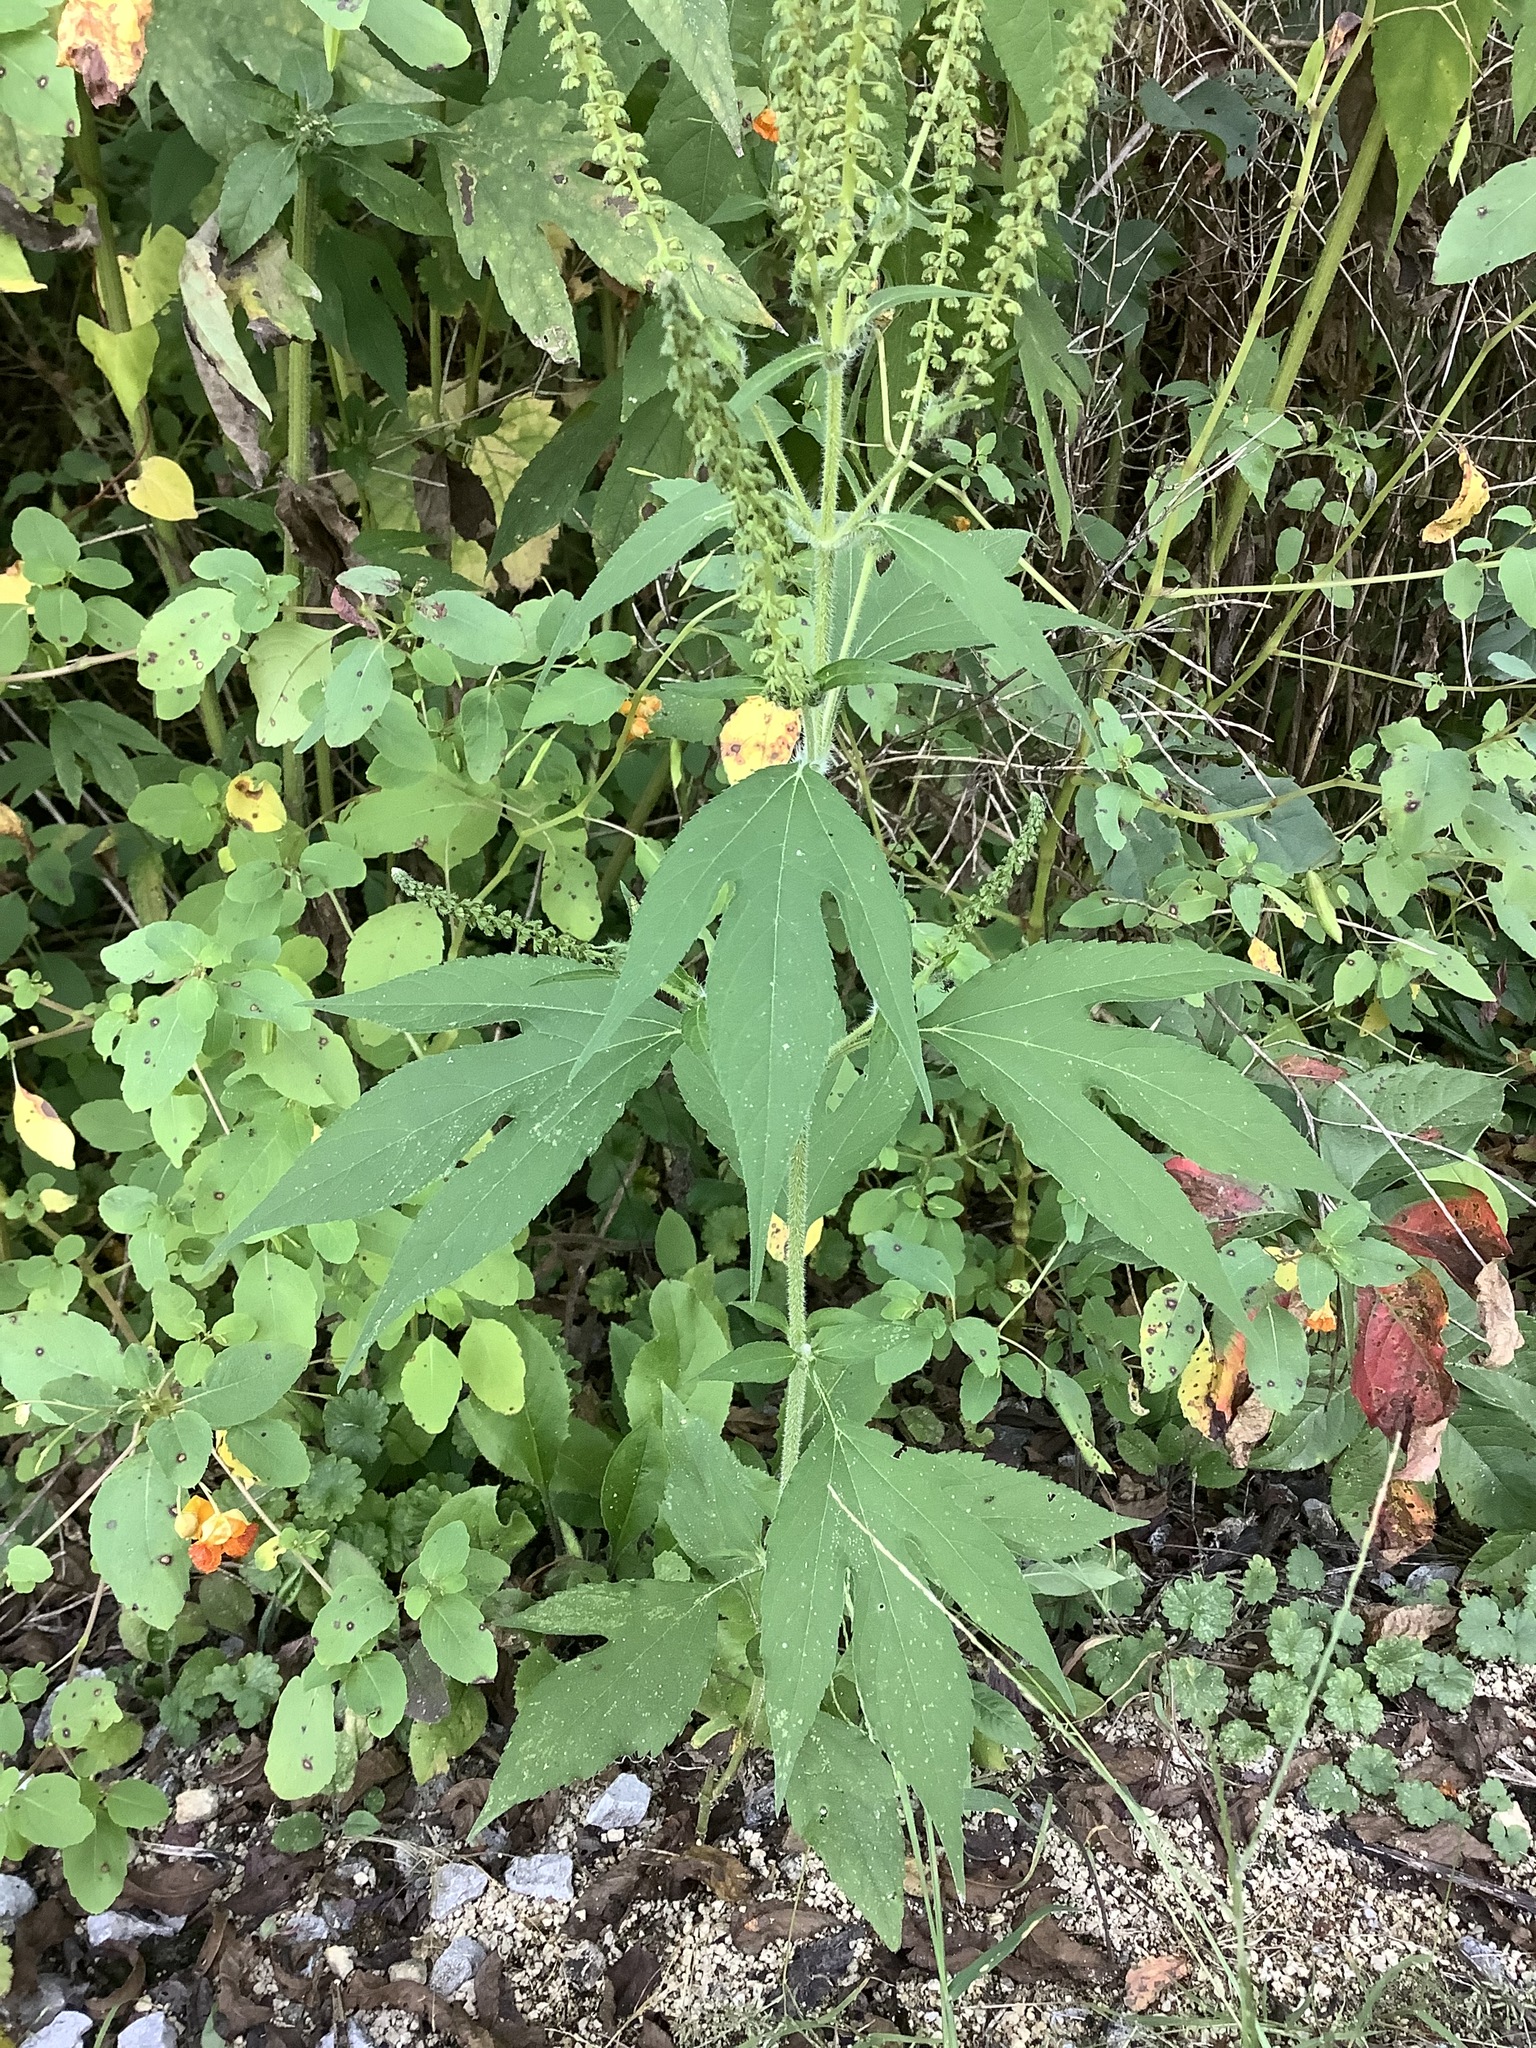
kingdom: Plantae
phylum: Tracheophyta
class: Magnoliopsida
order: Asterales
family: Asteraceae
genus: Ambrosia
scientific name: Ambrosia trifida
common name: Giant ragweed
